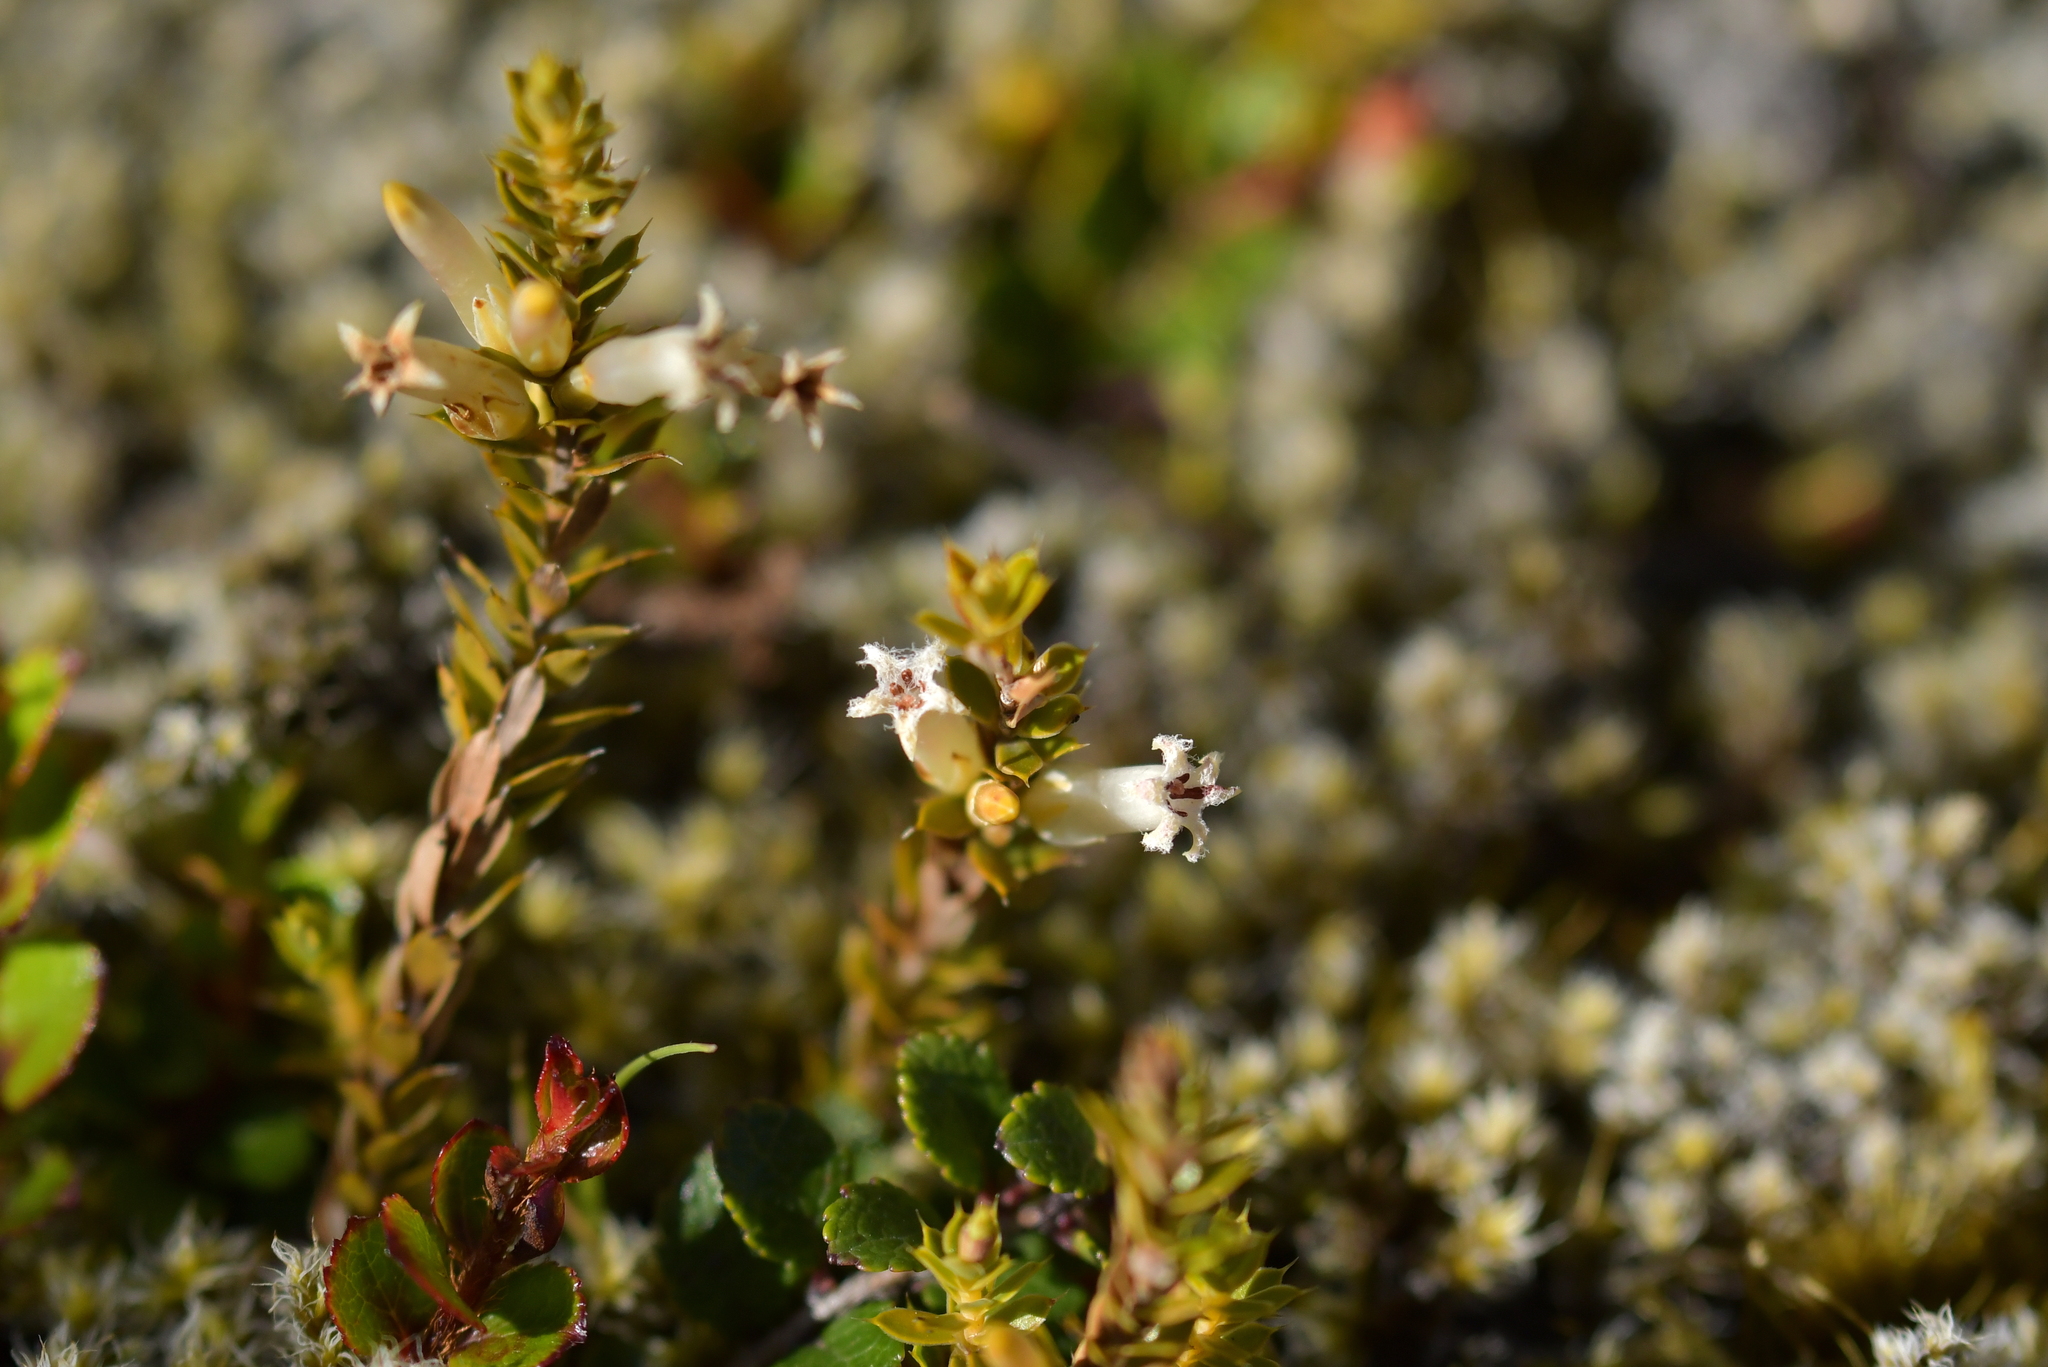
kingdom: Plantae
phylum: Tracheophyta
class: Magnoliopsida
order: Ericales
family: Ericaceae
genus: Styphelia
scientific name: Styphelia nesophila
